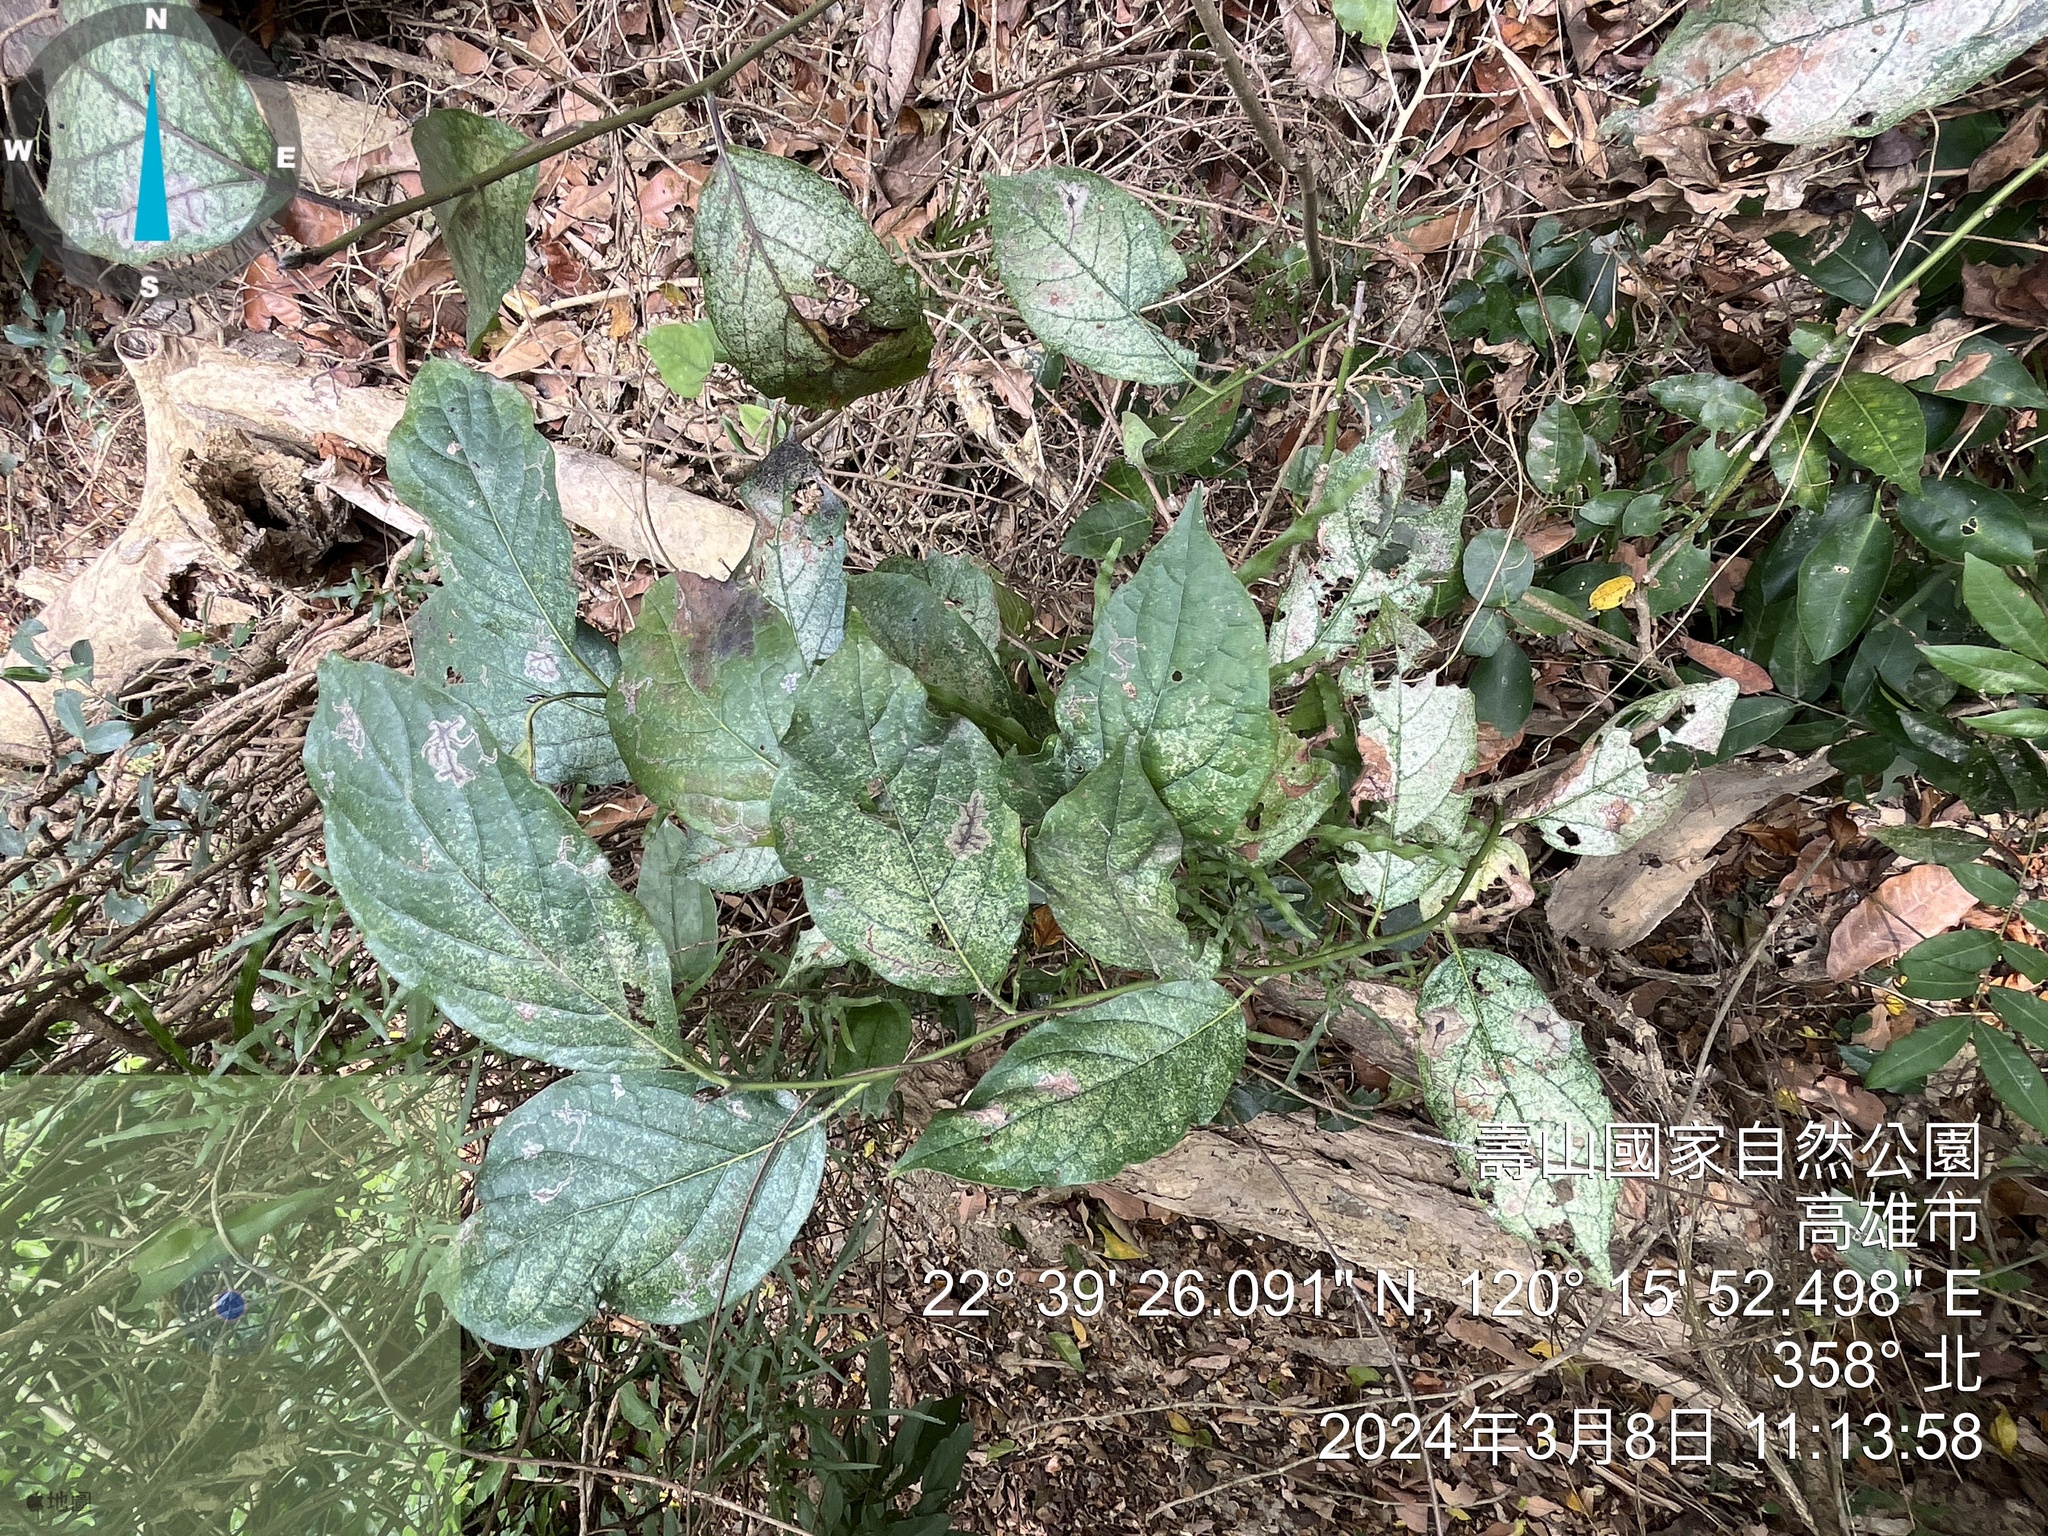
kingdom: Plantae
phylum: Tracheophyta
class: Magnoliopsida
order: Boraginales
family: Ehretiaceae
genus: Ehretia
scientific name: Ehretia resinosa
